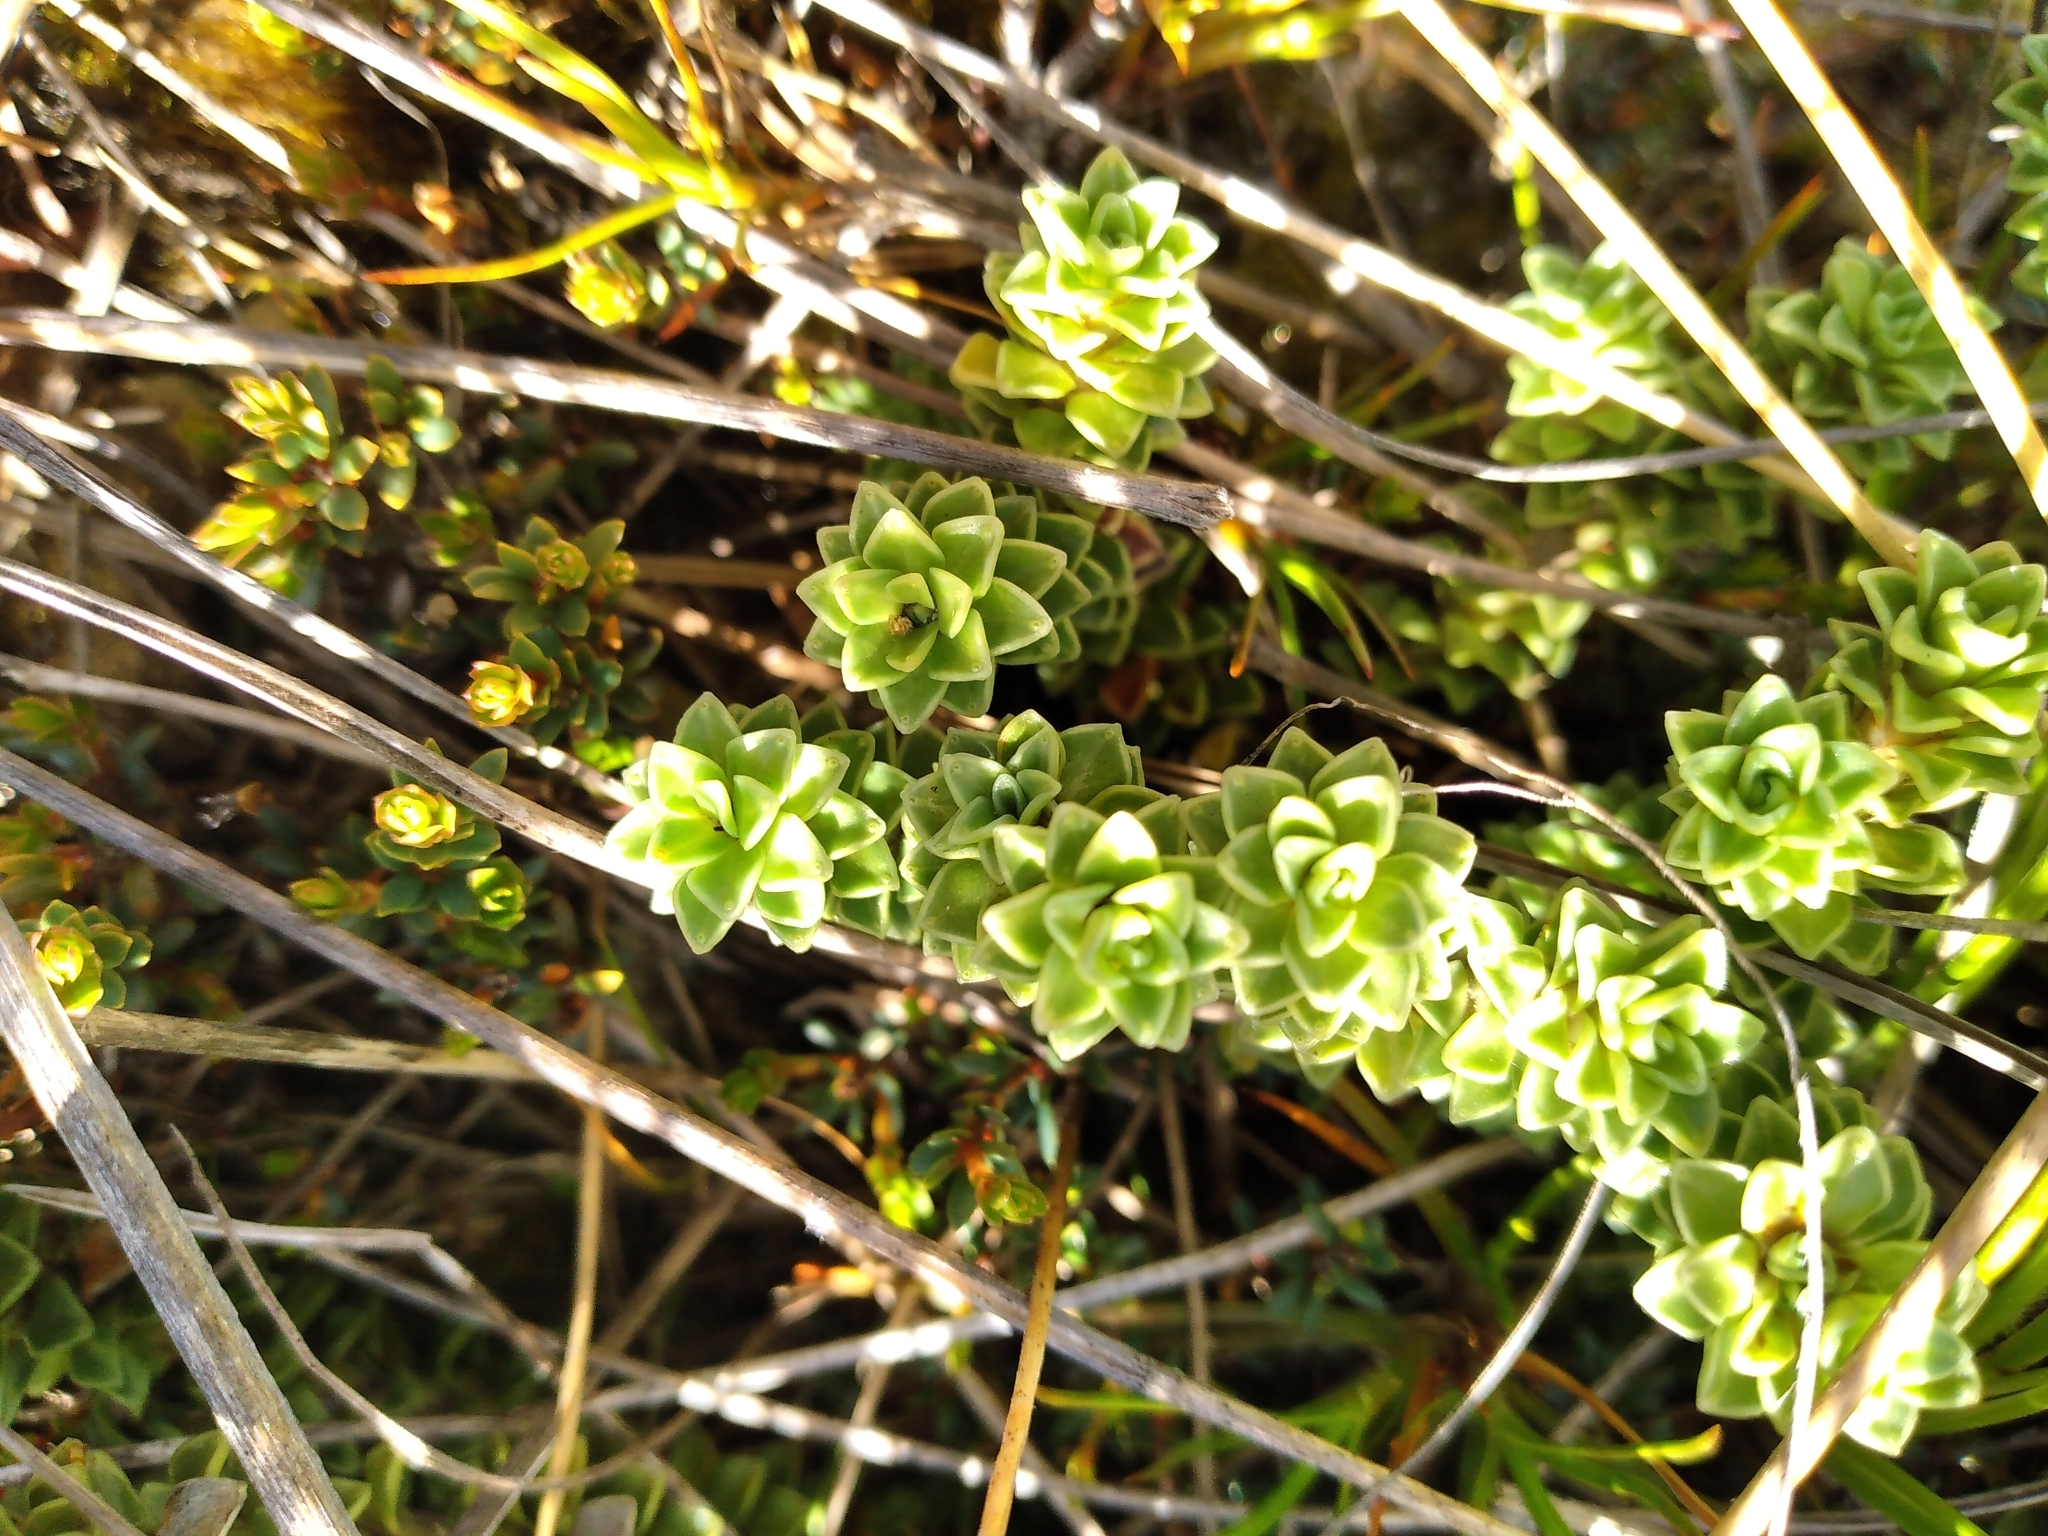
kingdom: Plantae
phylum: Tracheophyta
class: Magnoliopsida
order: Asterales
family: Stylidiaceae
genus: Forstera
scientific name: Forstera sedifolia
